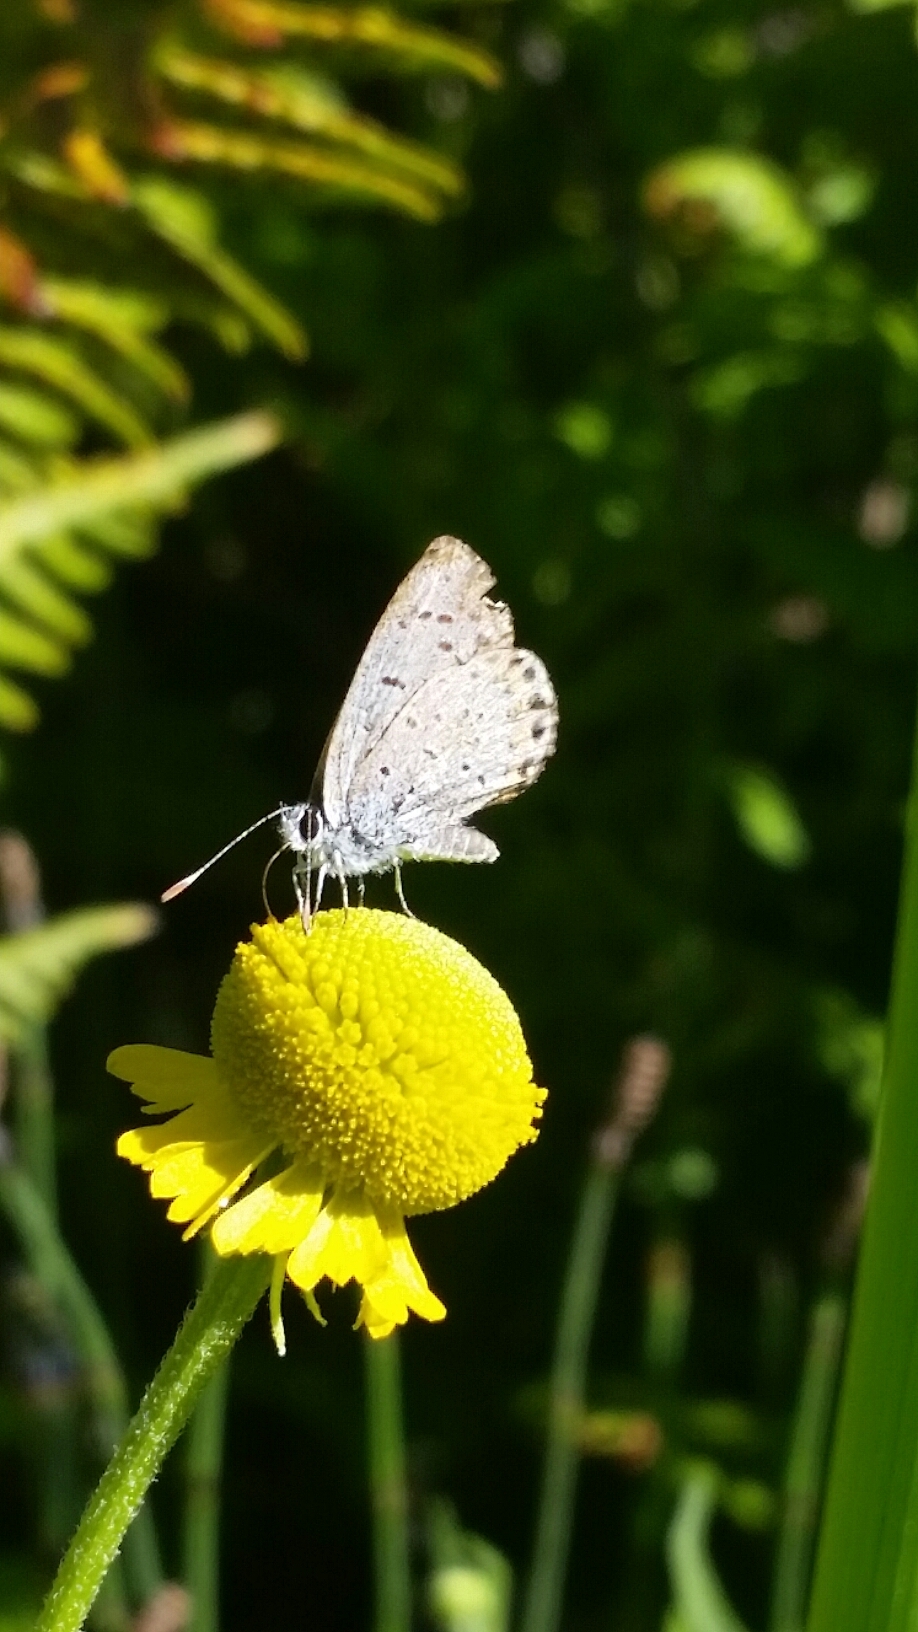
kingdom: Animalia
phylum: Arthropoda
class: Insecta
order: Lepidoptera
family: Lycaenidae
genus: Icaricia
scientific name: Icaricia acmon
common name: Acmon blue
